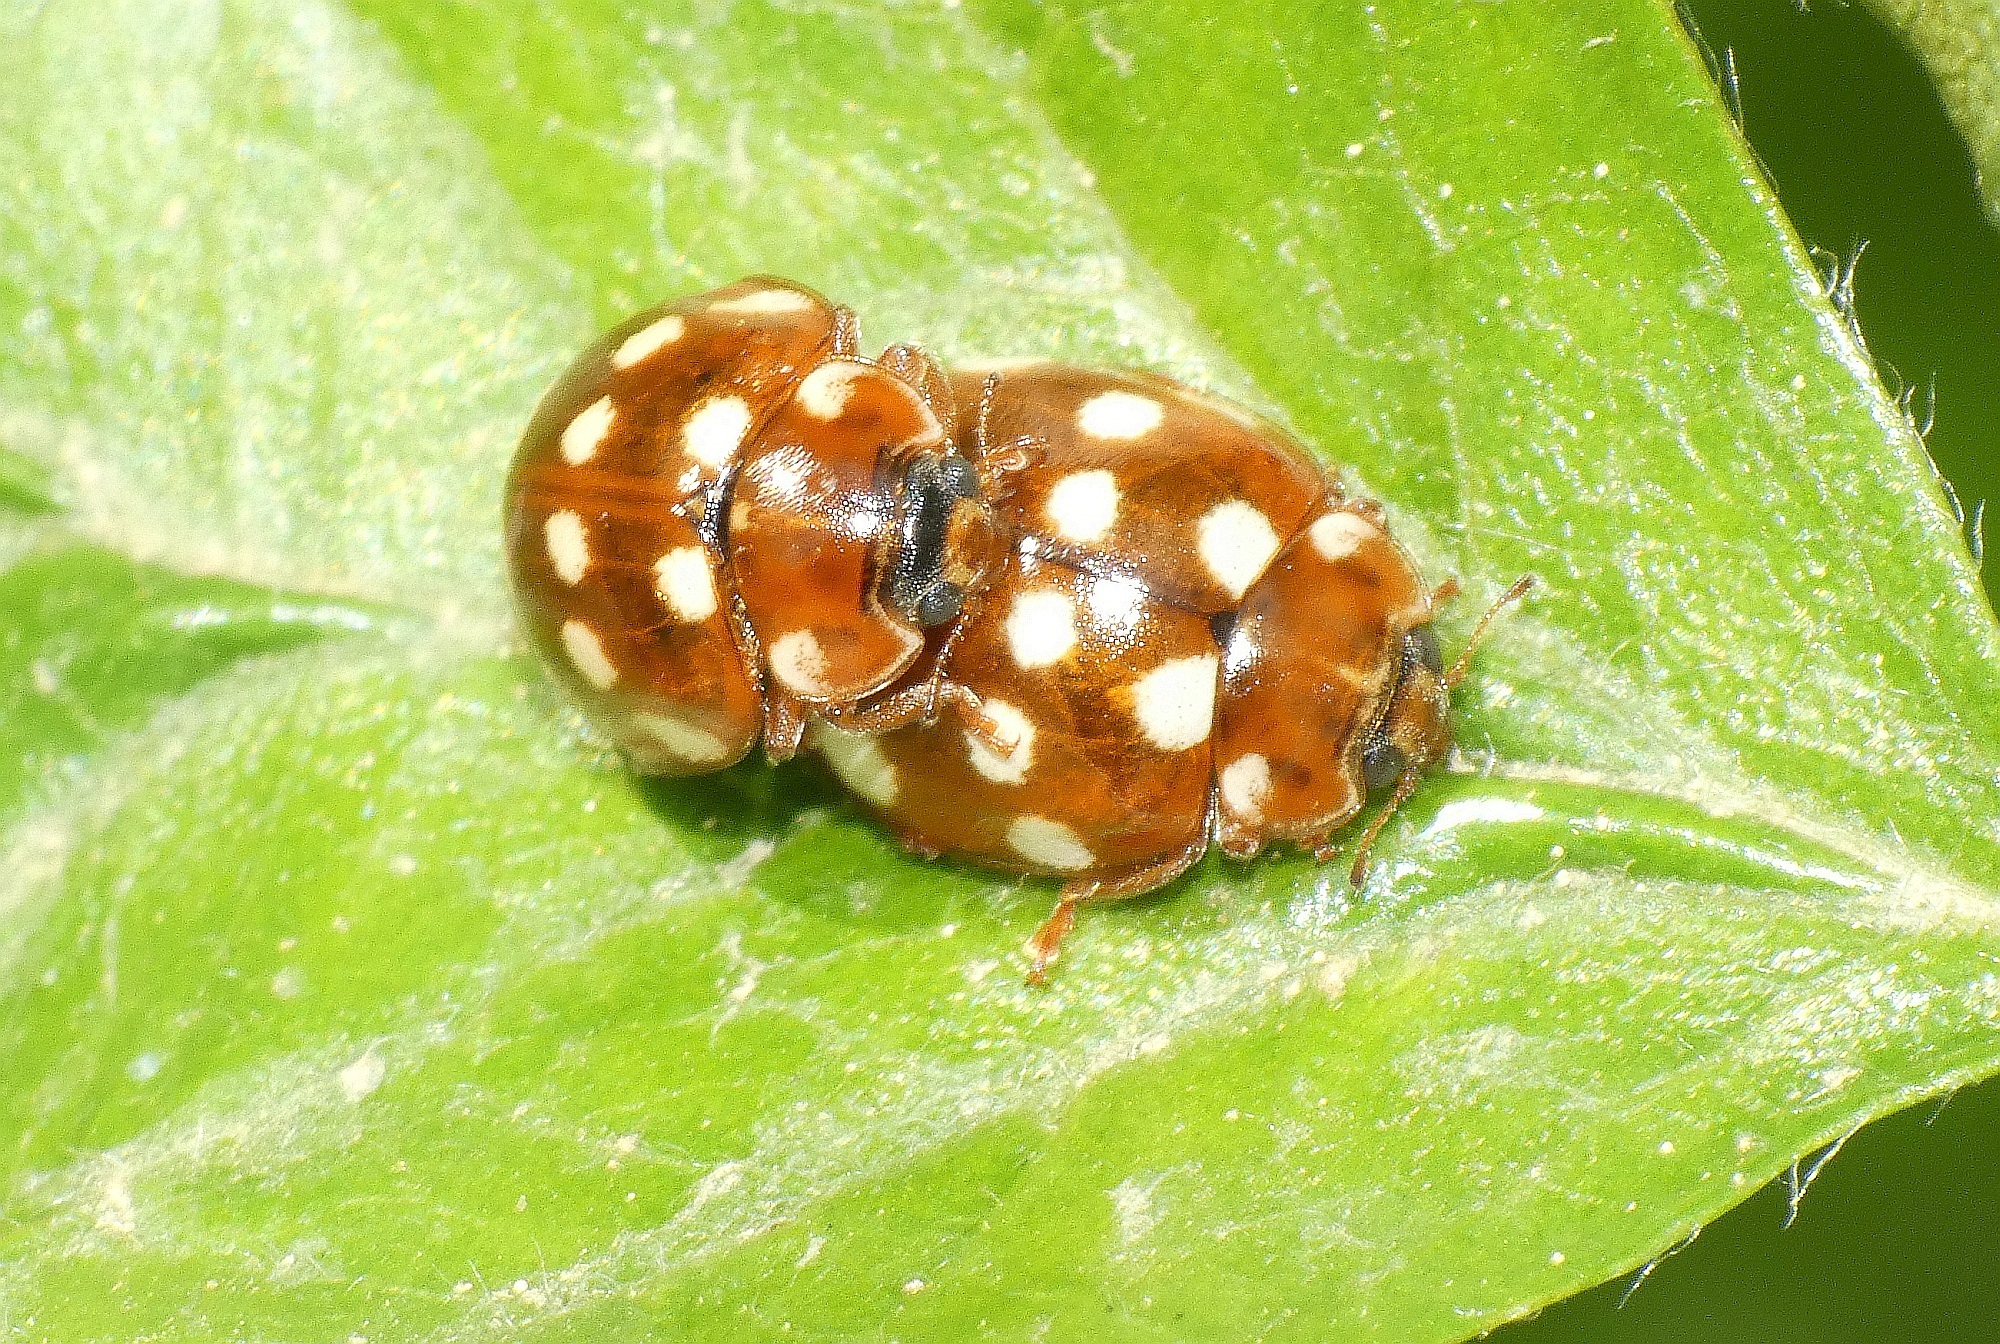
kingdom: Animalia
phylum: Arthropoda
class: Insecta
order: Coleoptera
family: Coccinellidae
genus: Calvia
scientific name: Calvia quatuordecimguttata
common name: Cream-spot ladybird
